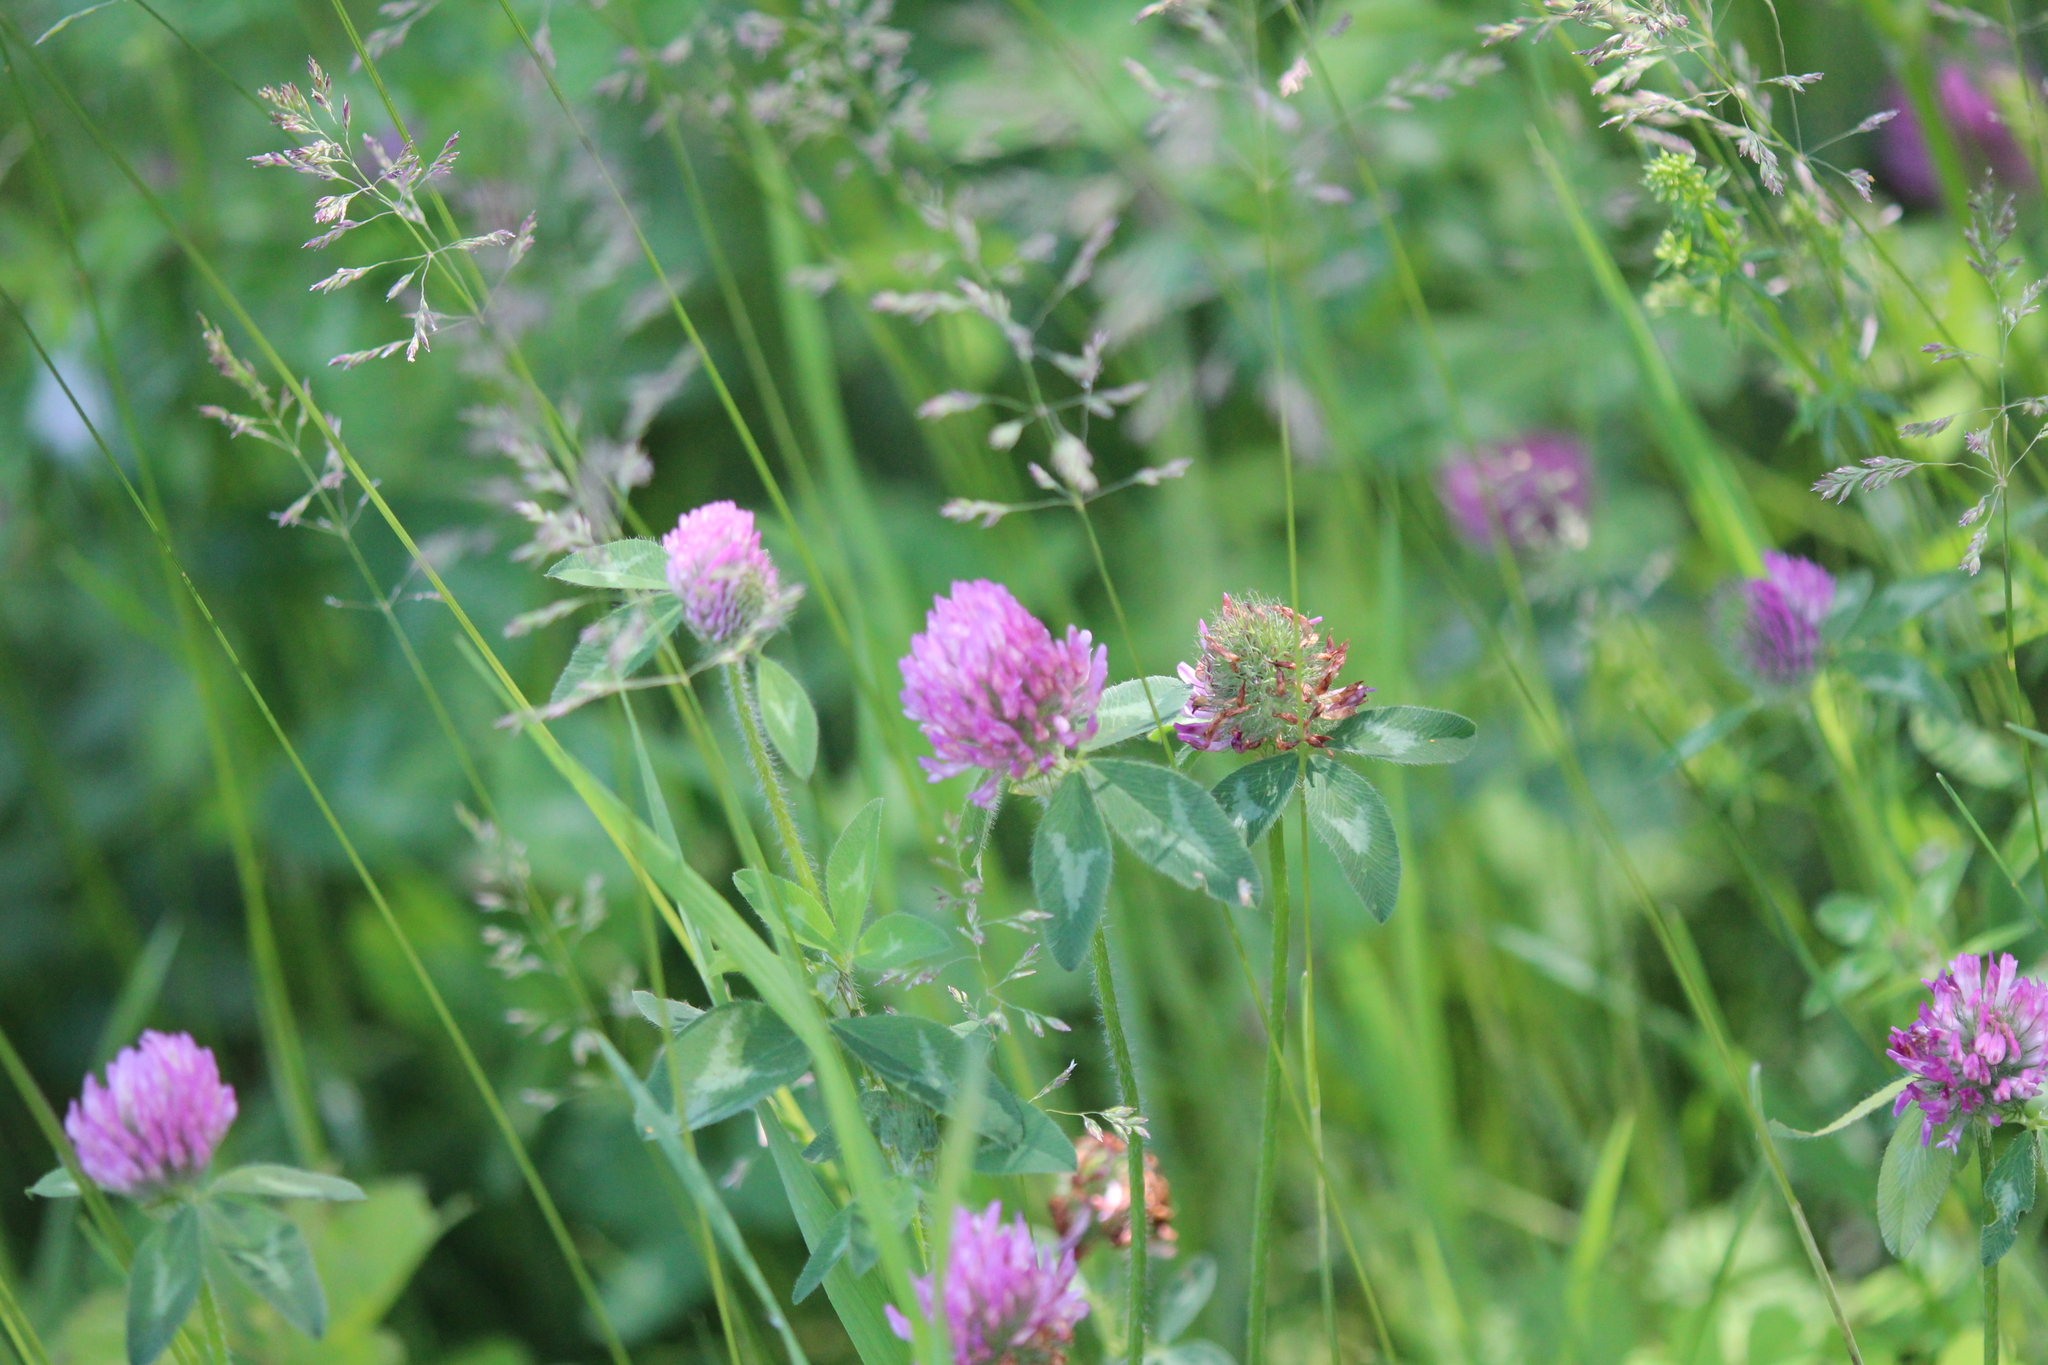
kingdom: Plantae
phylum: Tracheophyta
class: Magnoliopsida
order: Fabales
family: Fabaceae
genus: Trifolium
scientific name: Trifolium pratense
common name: Red clover
